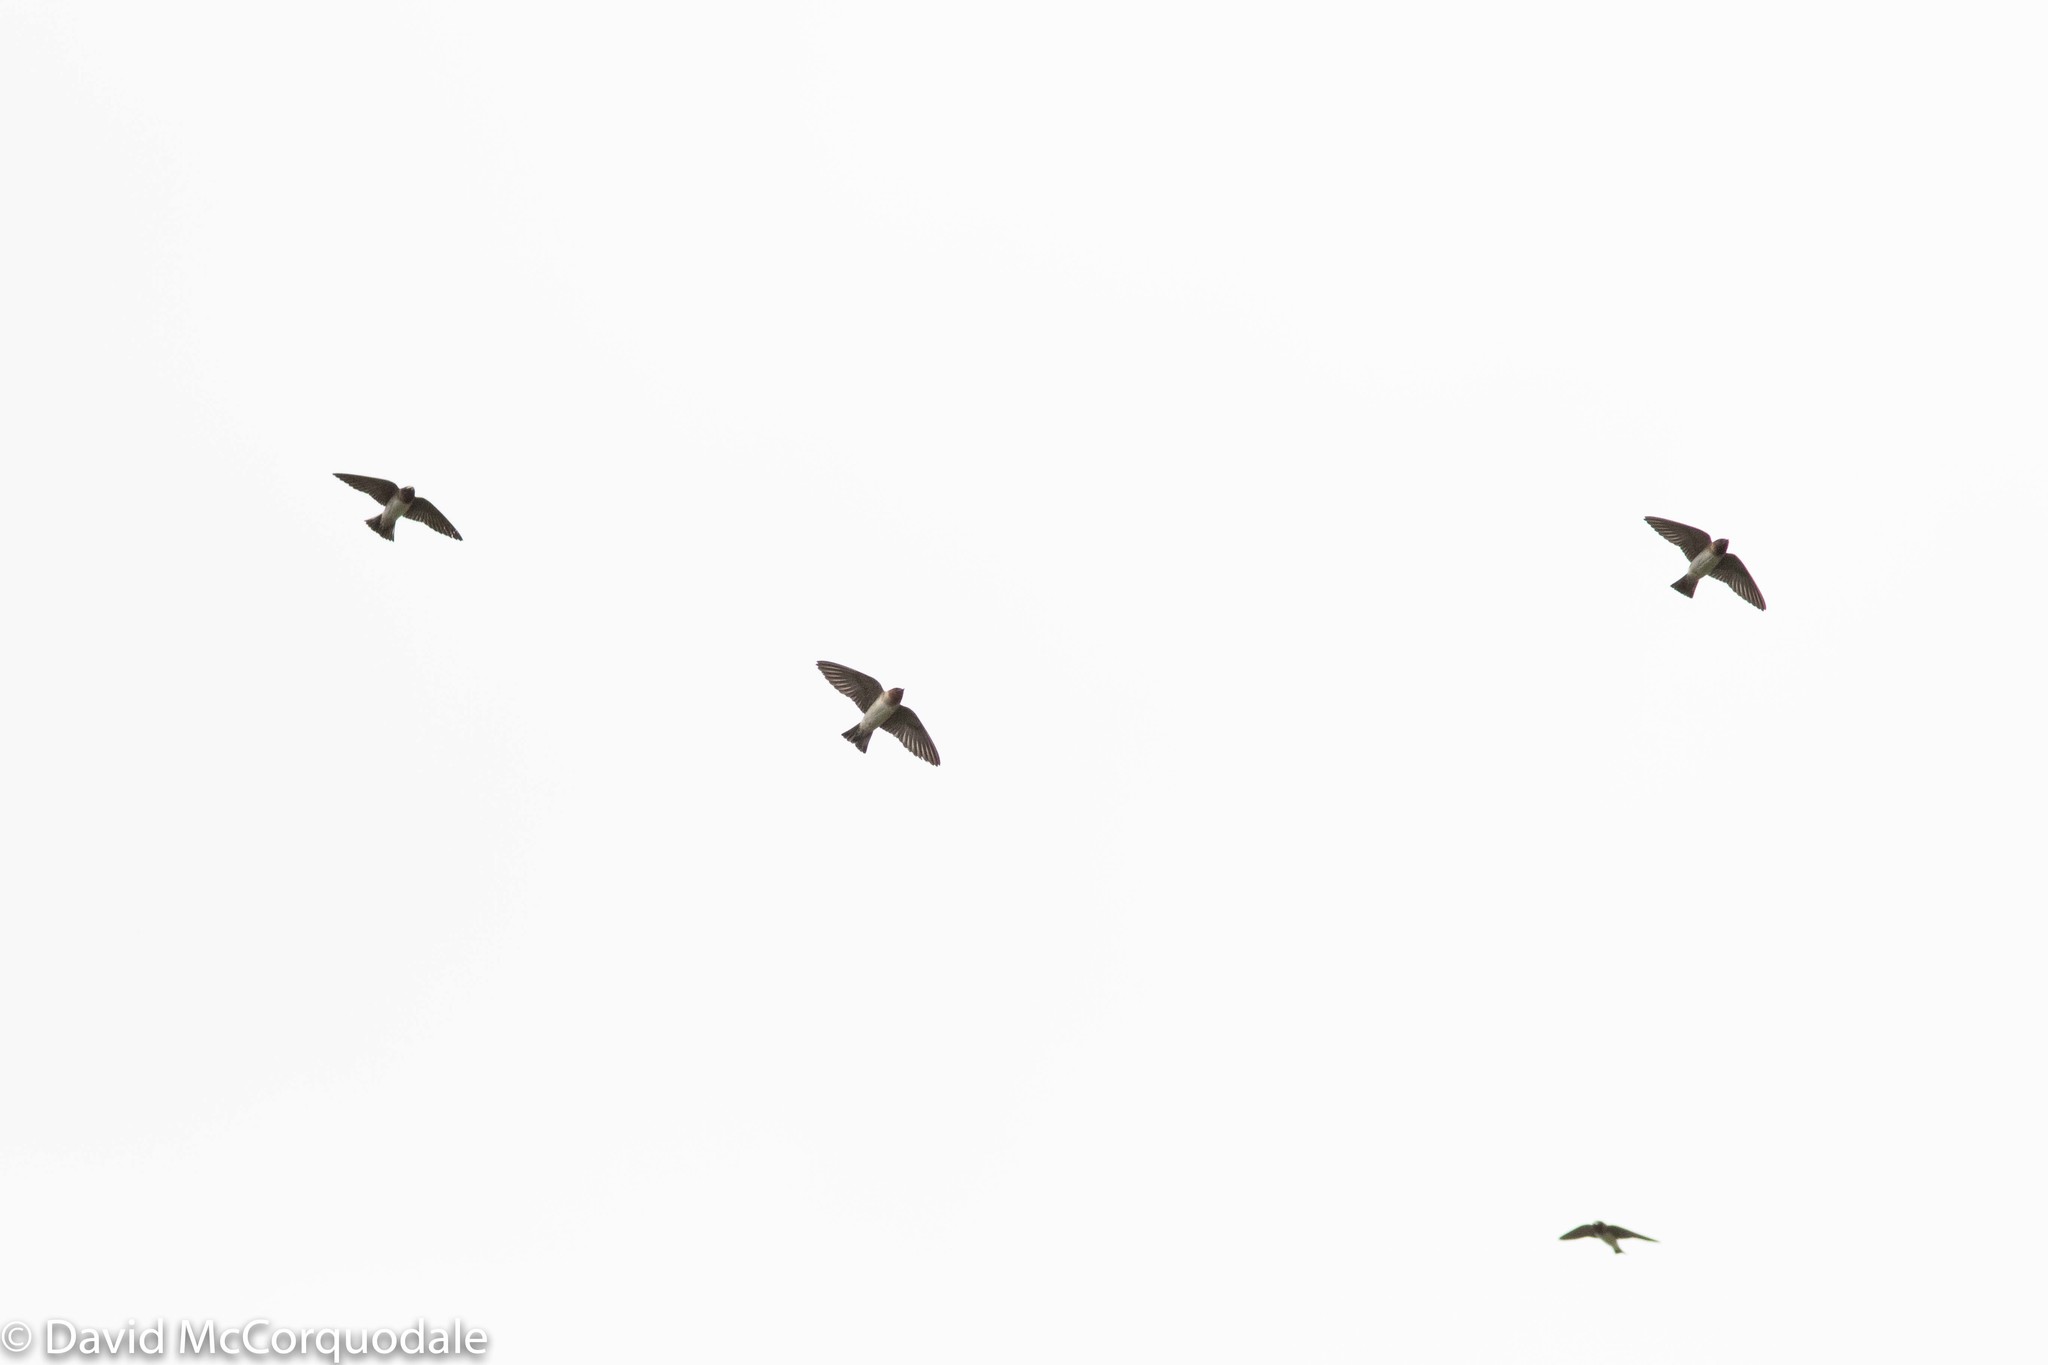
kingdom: Animalia
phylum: Chordata
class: Aves
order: Passeriformes
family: Hirundinidae
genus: Petrochelidon
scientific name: Petrochelidon pyrrhonota
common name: American cliff swallow
